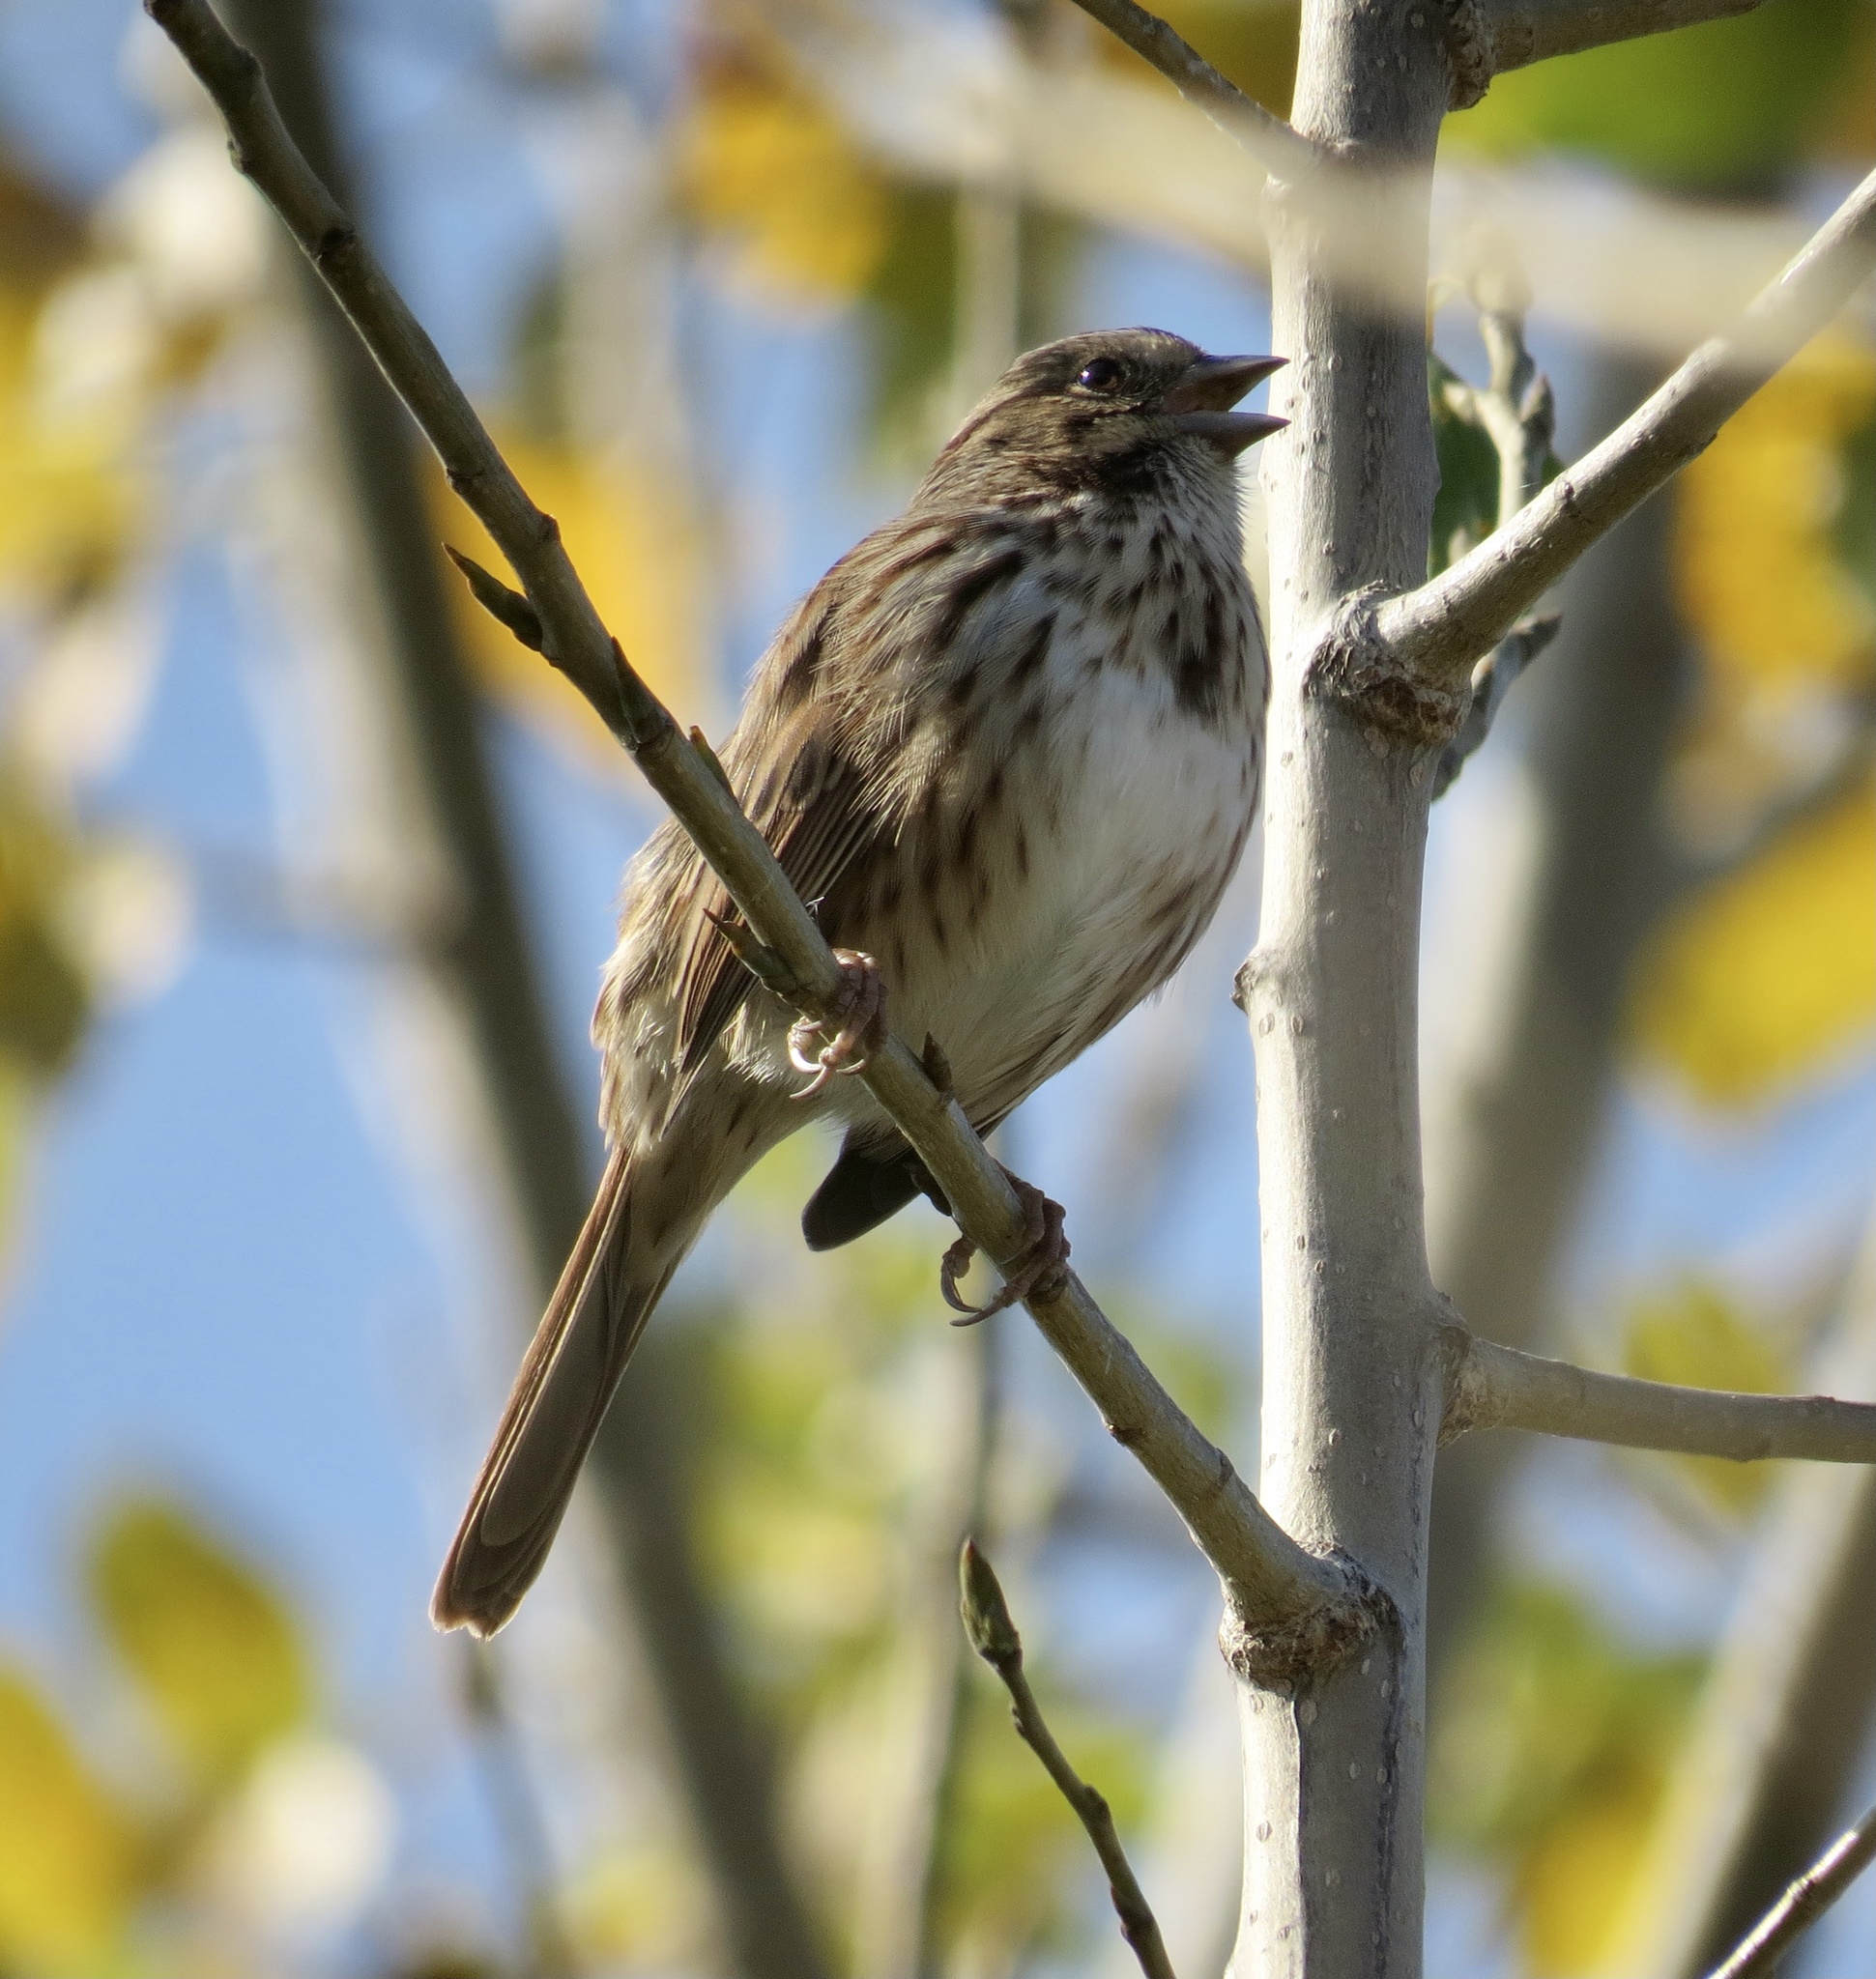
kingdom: Animalia
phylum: Chordata
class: Aves
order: Passeriformes
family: Passerellidae
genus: Melospiza
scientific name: Melospiza melodia
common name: Song sparrow
